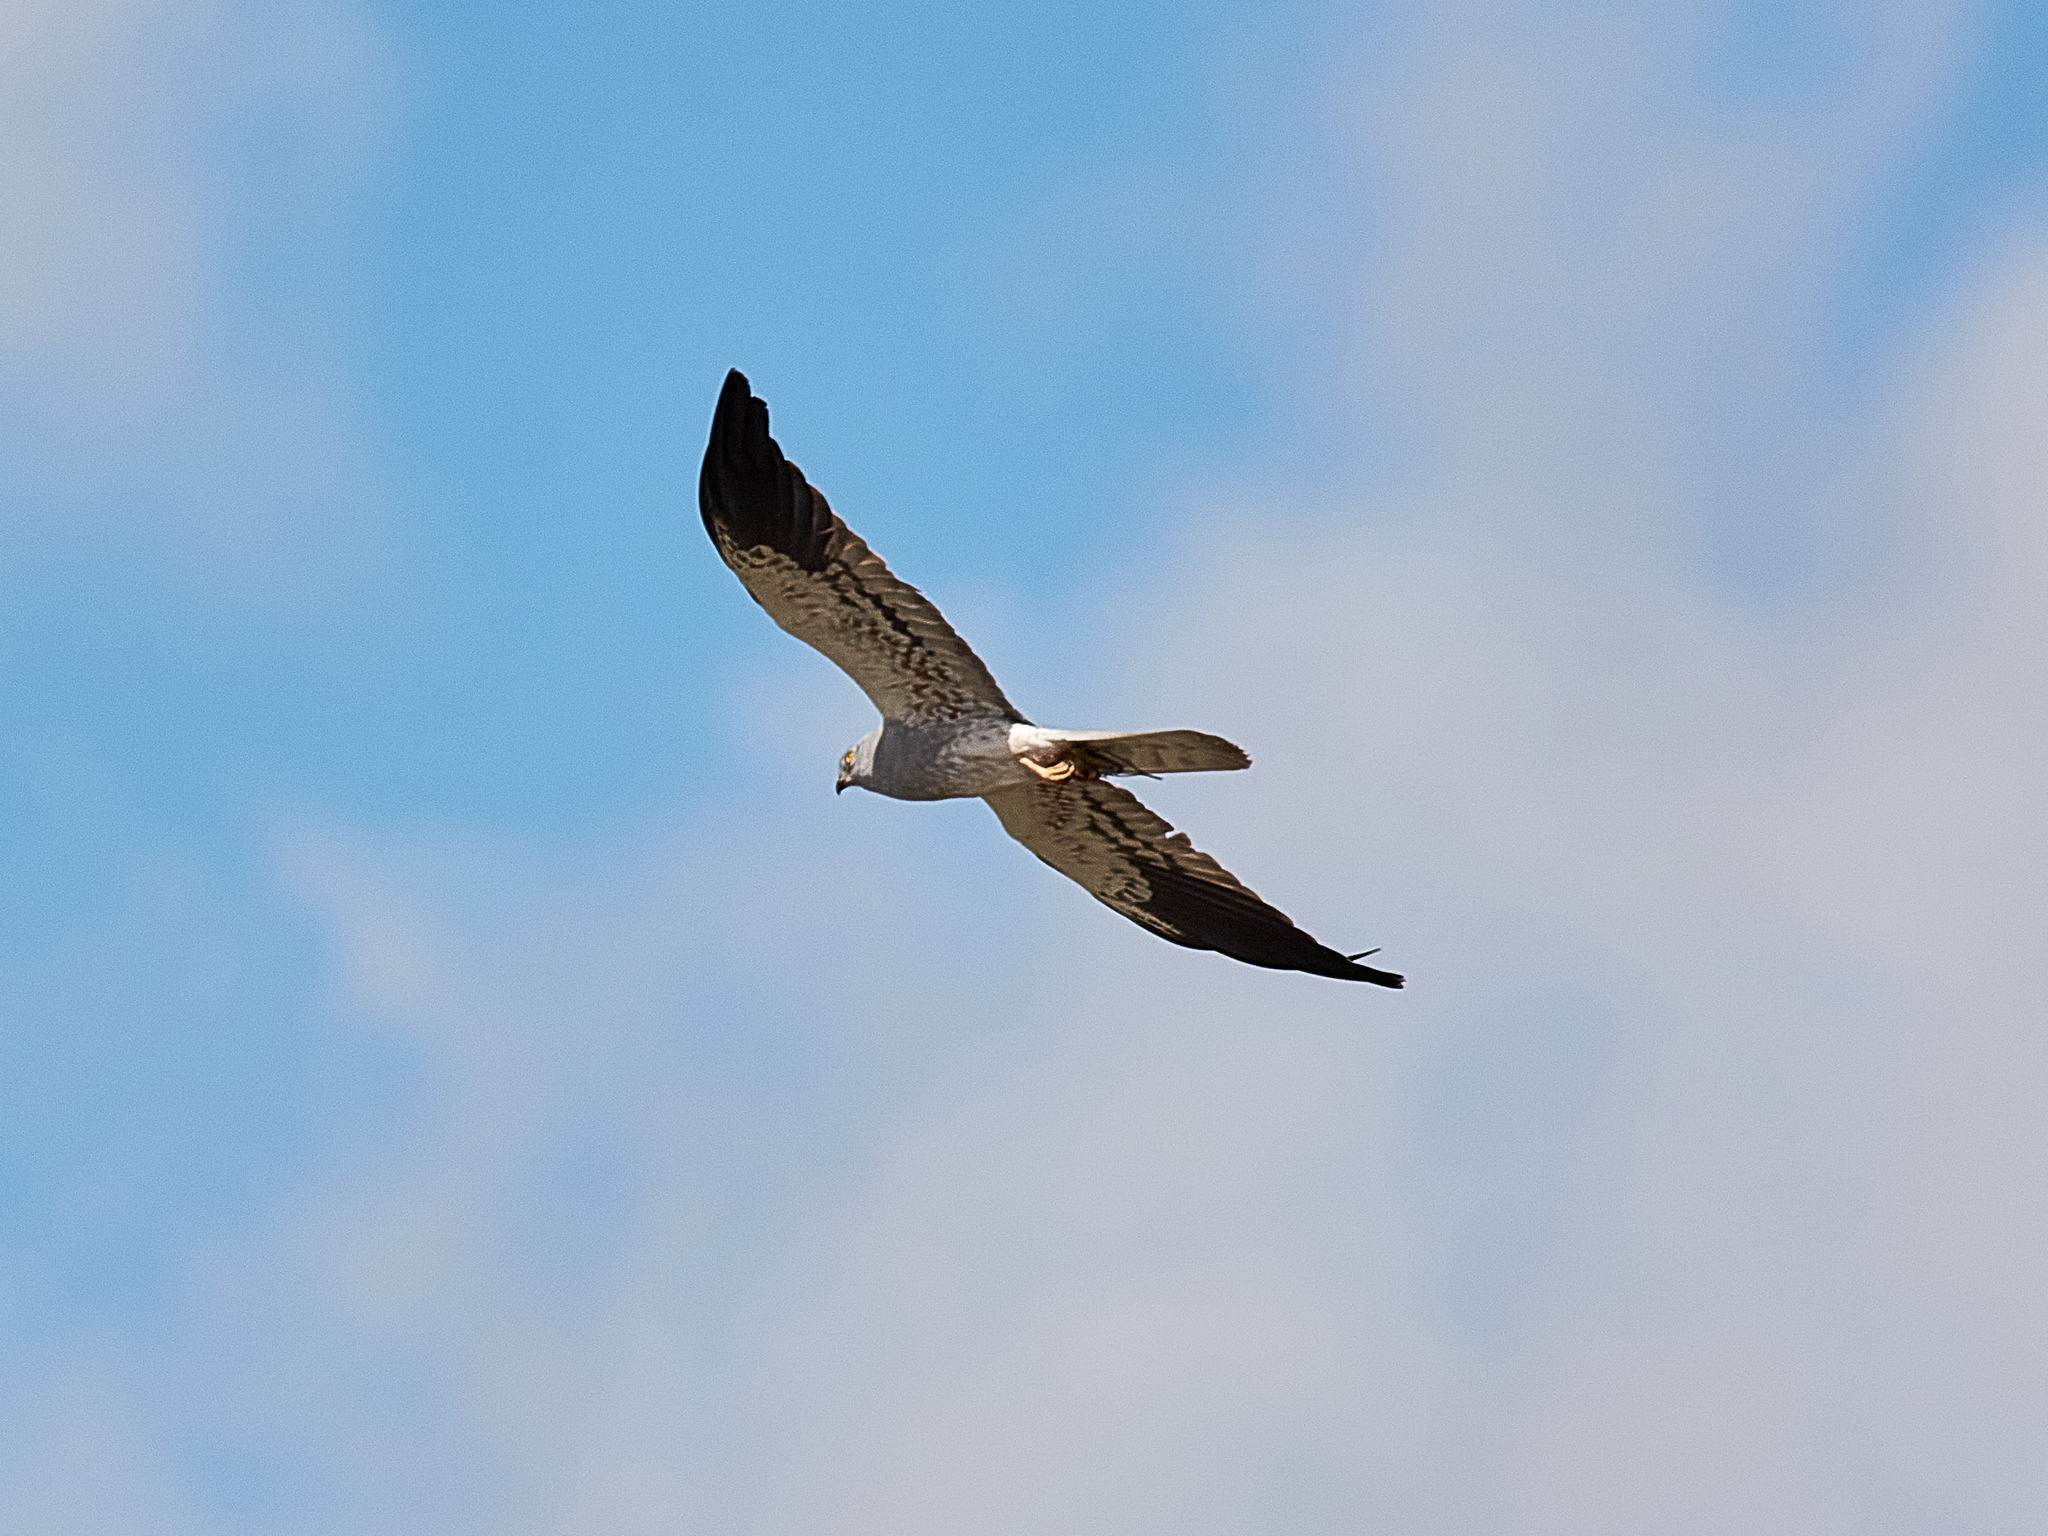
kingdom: Animalia
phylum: Chordata
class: Aves
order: Accipitriformes
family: Accipitridae
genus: Circus
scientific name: Circus pygargus
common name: Montagu's harrier
